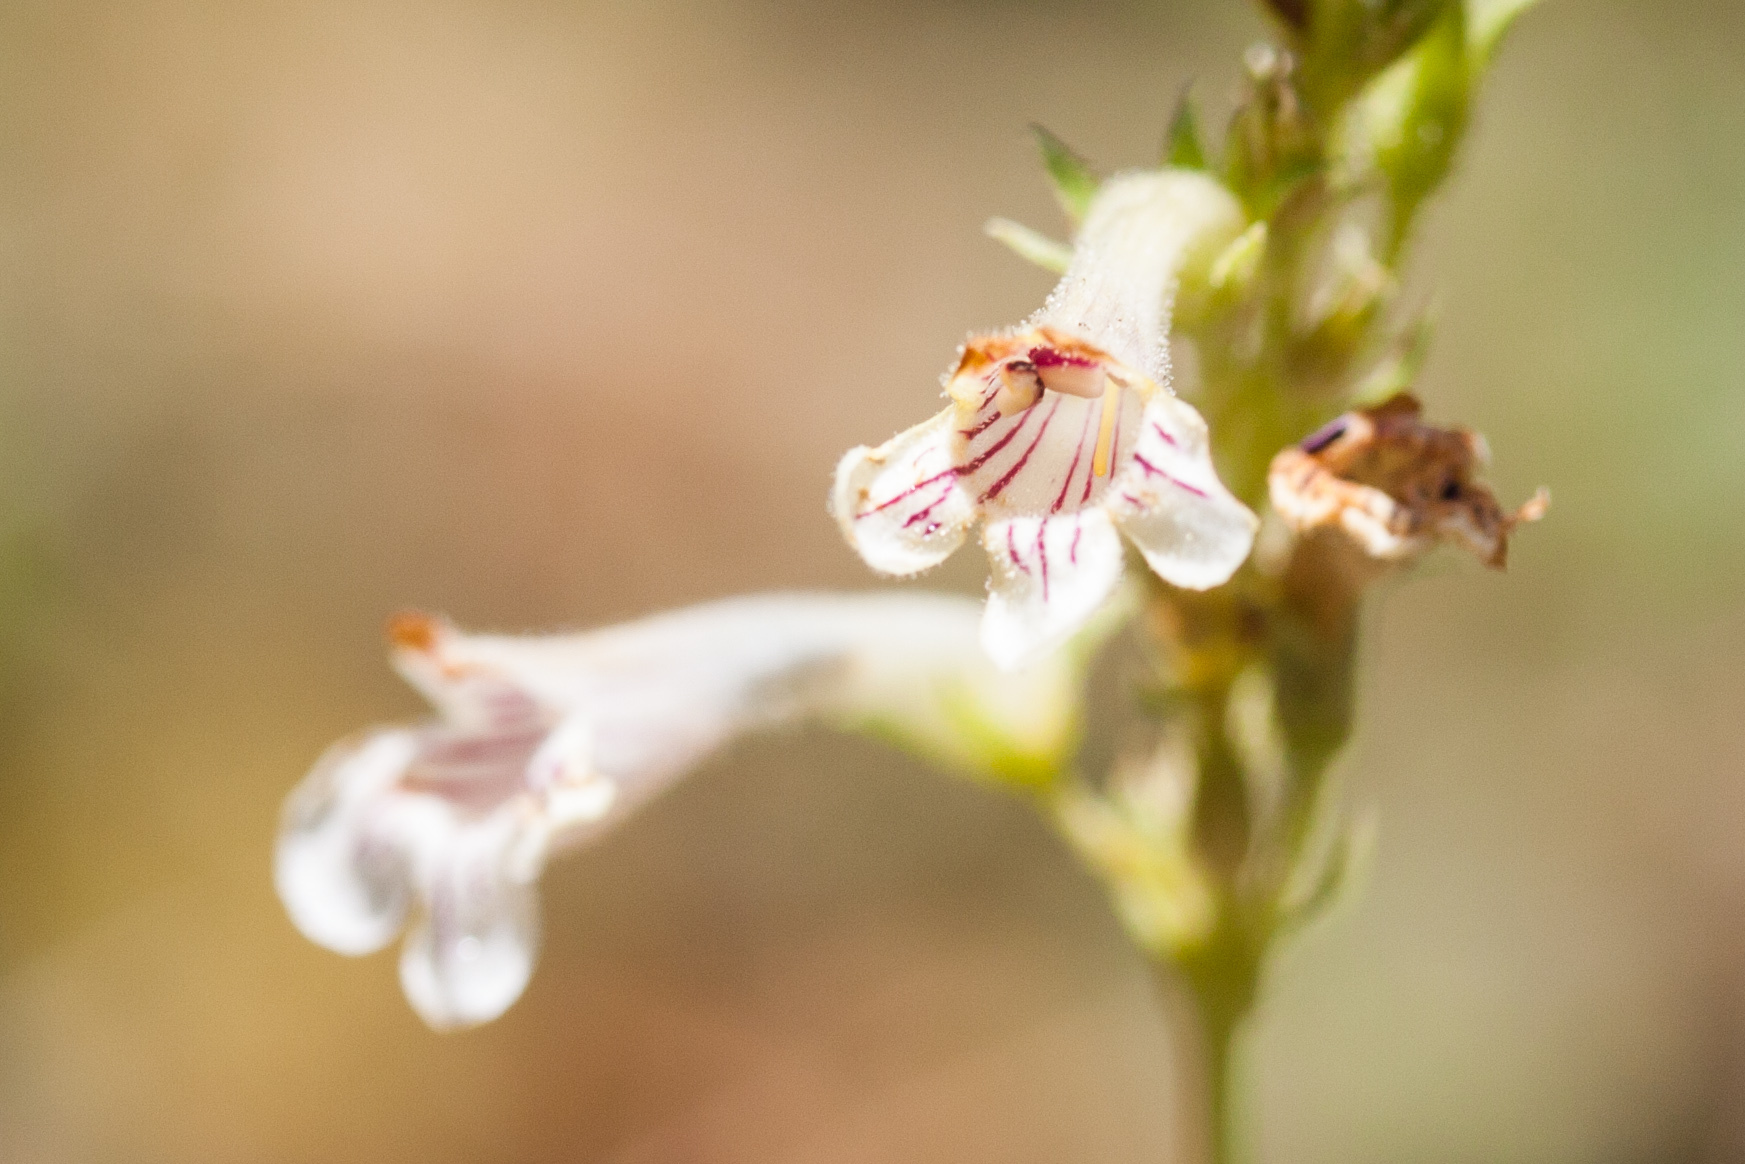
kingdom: Plantae
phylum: Tracheophyta
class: Magnoliopsida
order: Lamiales
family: Plantaginaceae
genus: Penstemon
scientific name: Penstemon deustus
